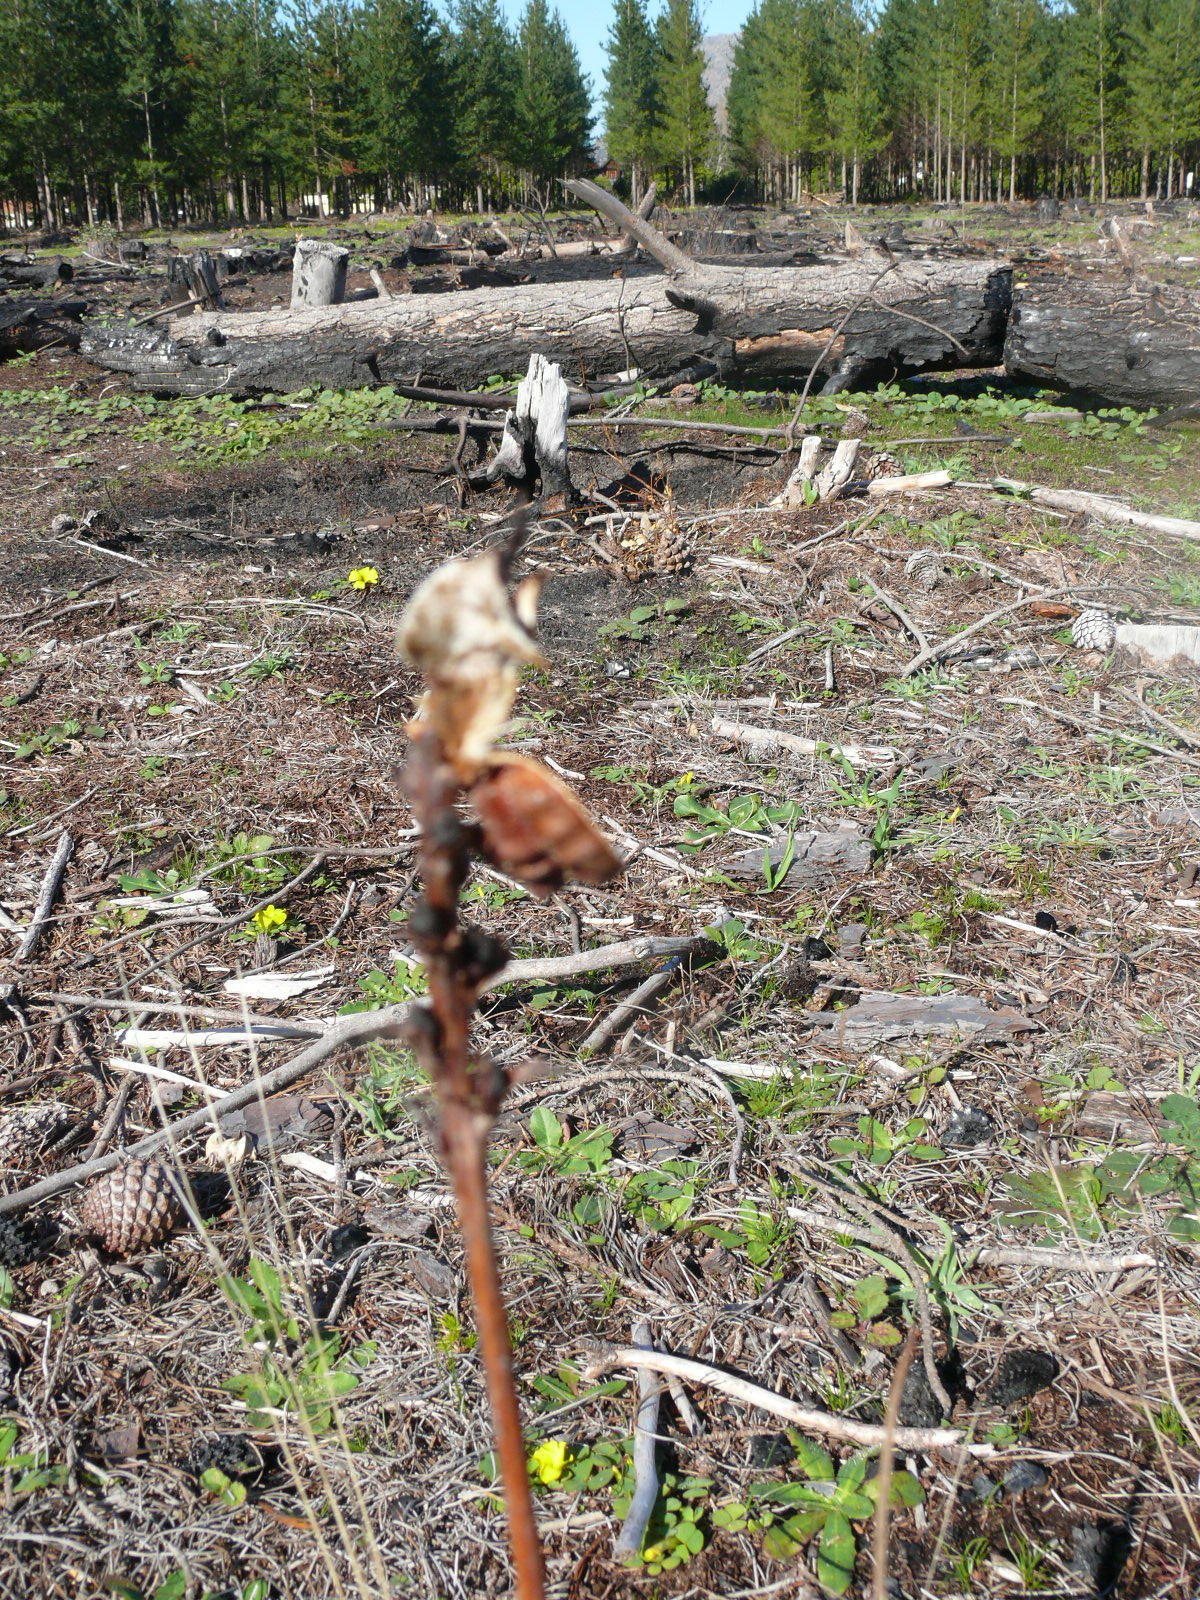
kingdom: Plantae
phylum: Tracheophyta
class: Liliopsida
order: Asparagales
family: Iridaceae
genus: Tritoniopsis
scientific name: Tritoniopsis antholyza
